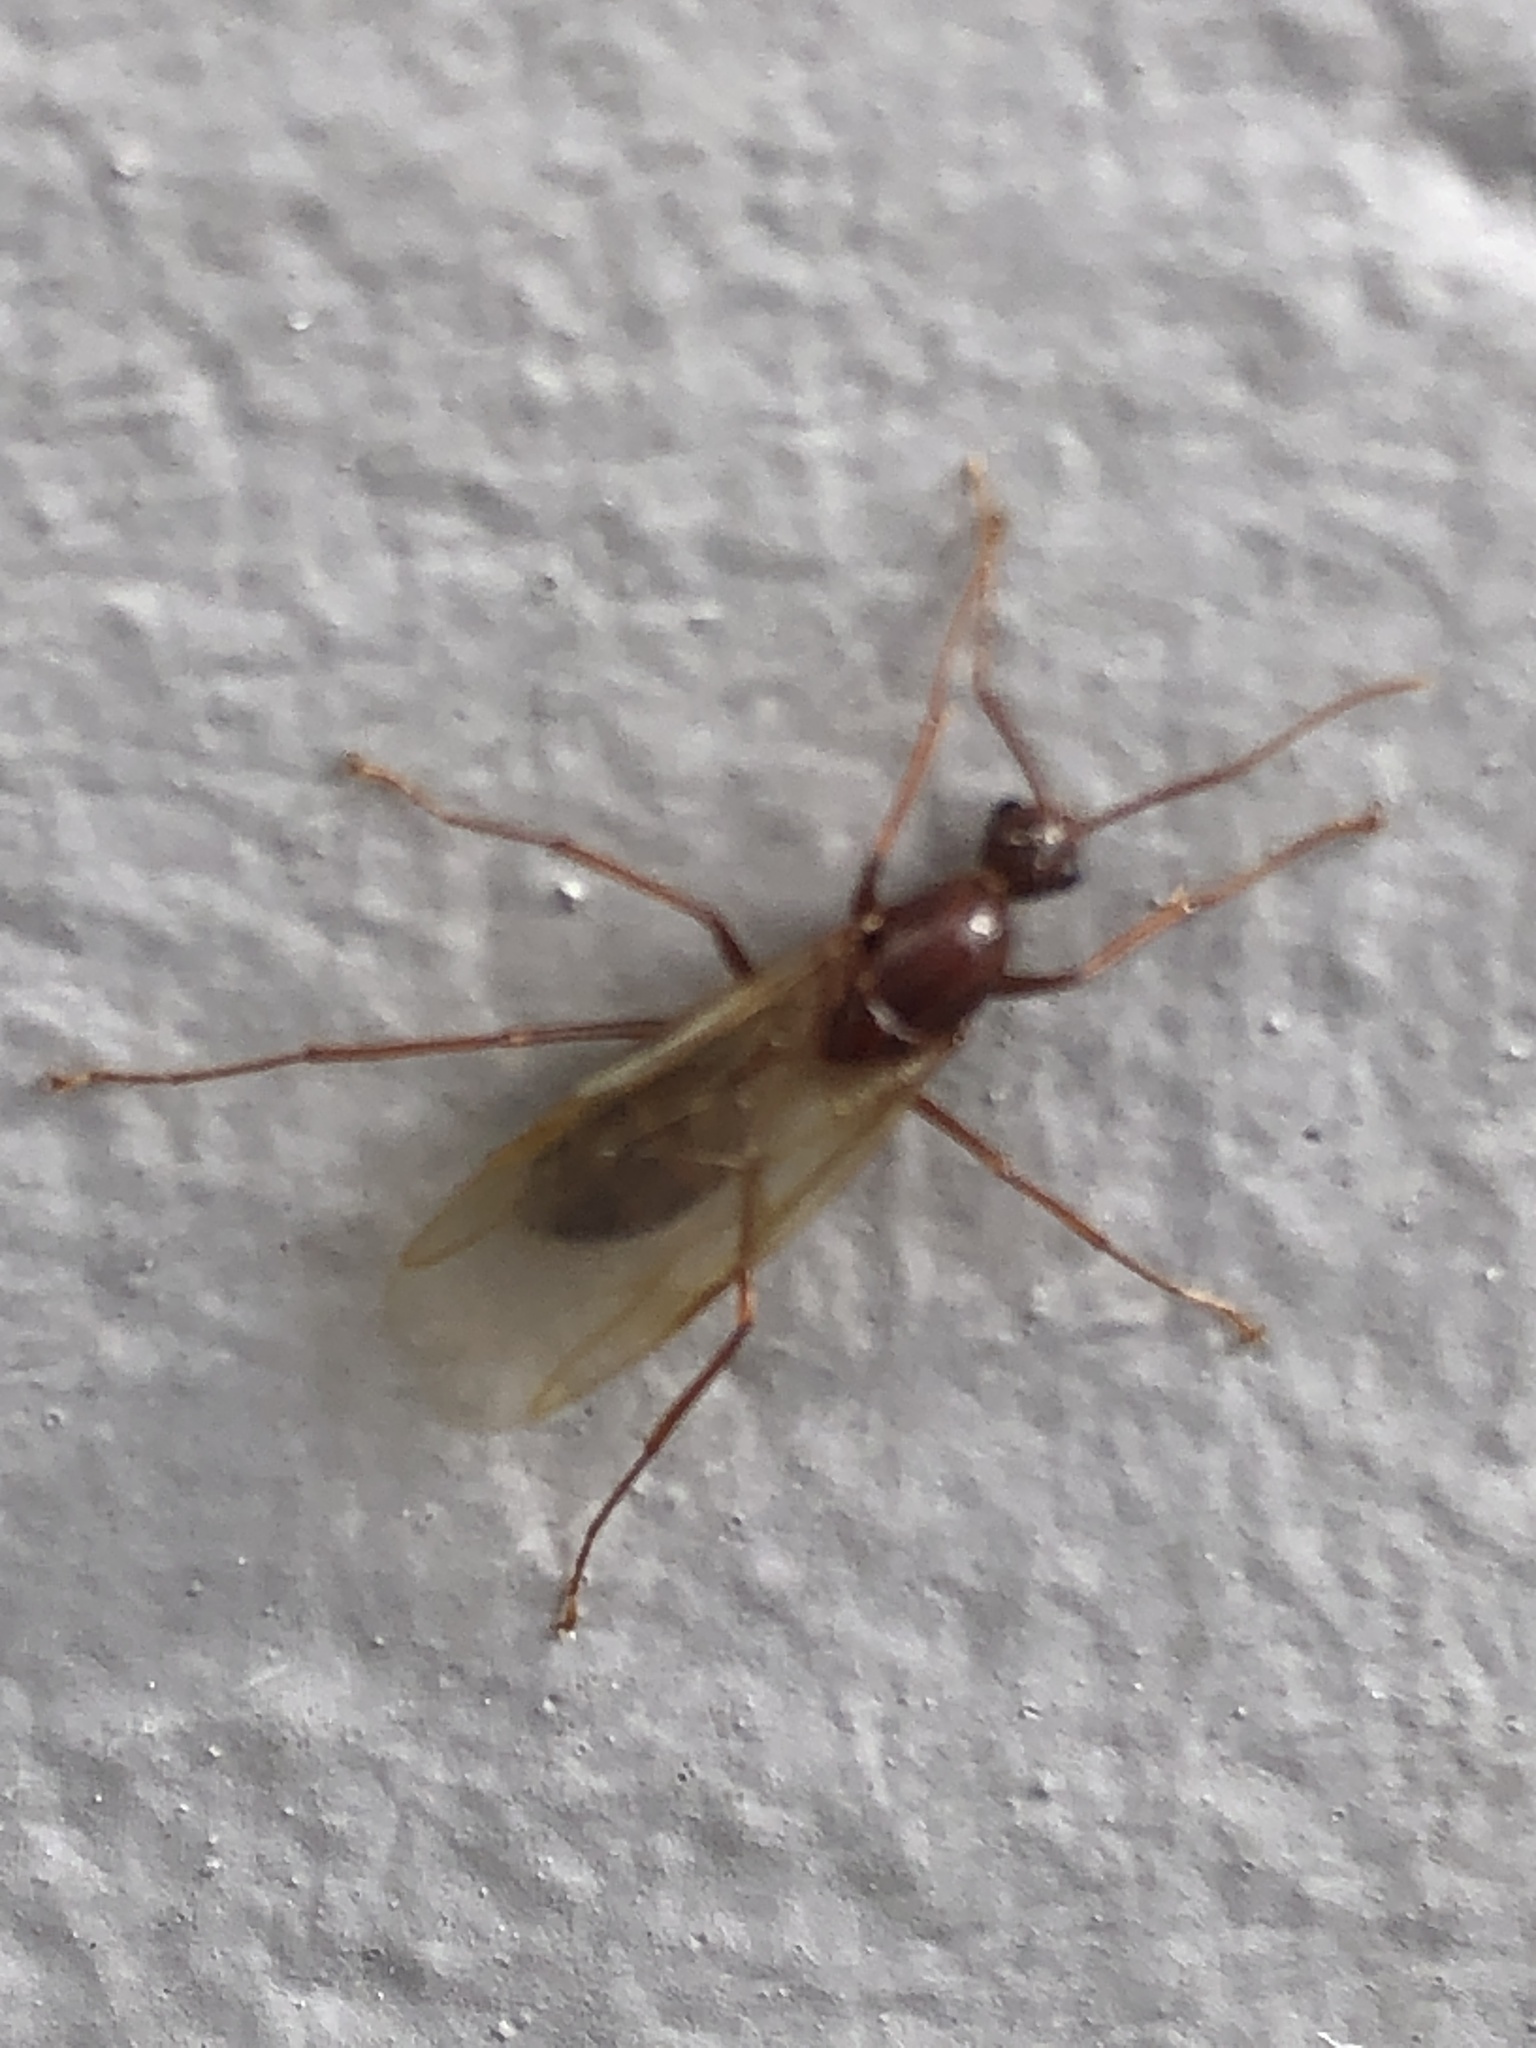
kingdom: Animalia
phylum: Arthropoda
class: Insecta
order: Hymenoptera
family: Formicidae
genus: Camponotus
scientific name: Camponotus floridanus
